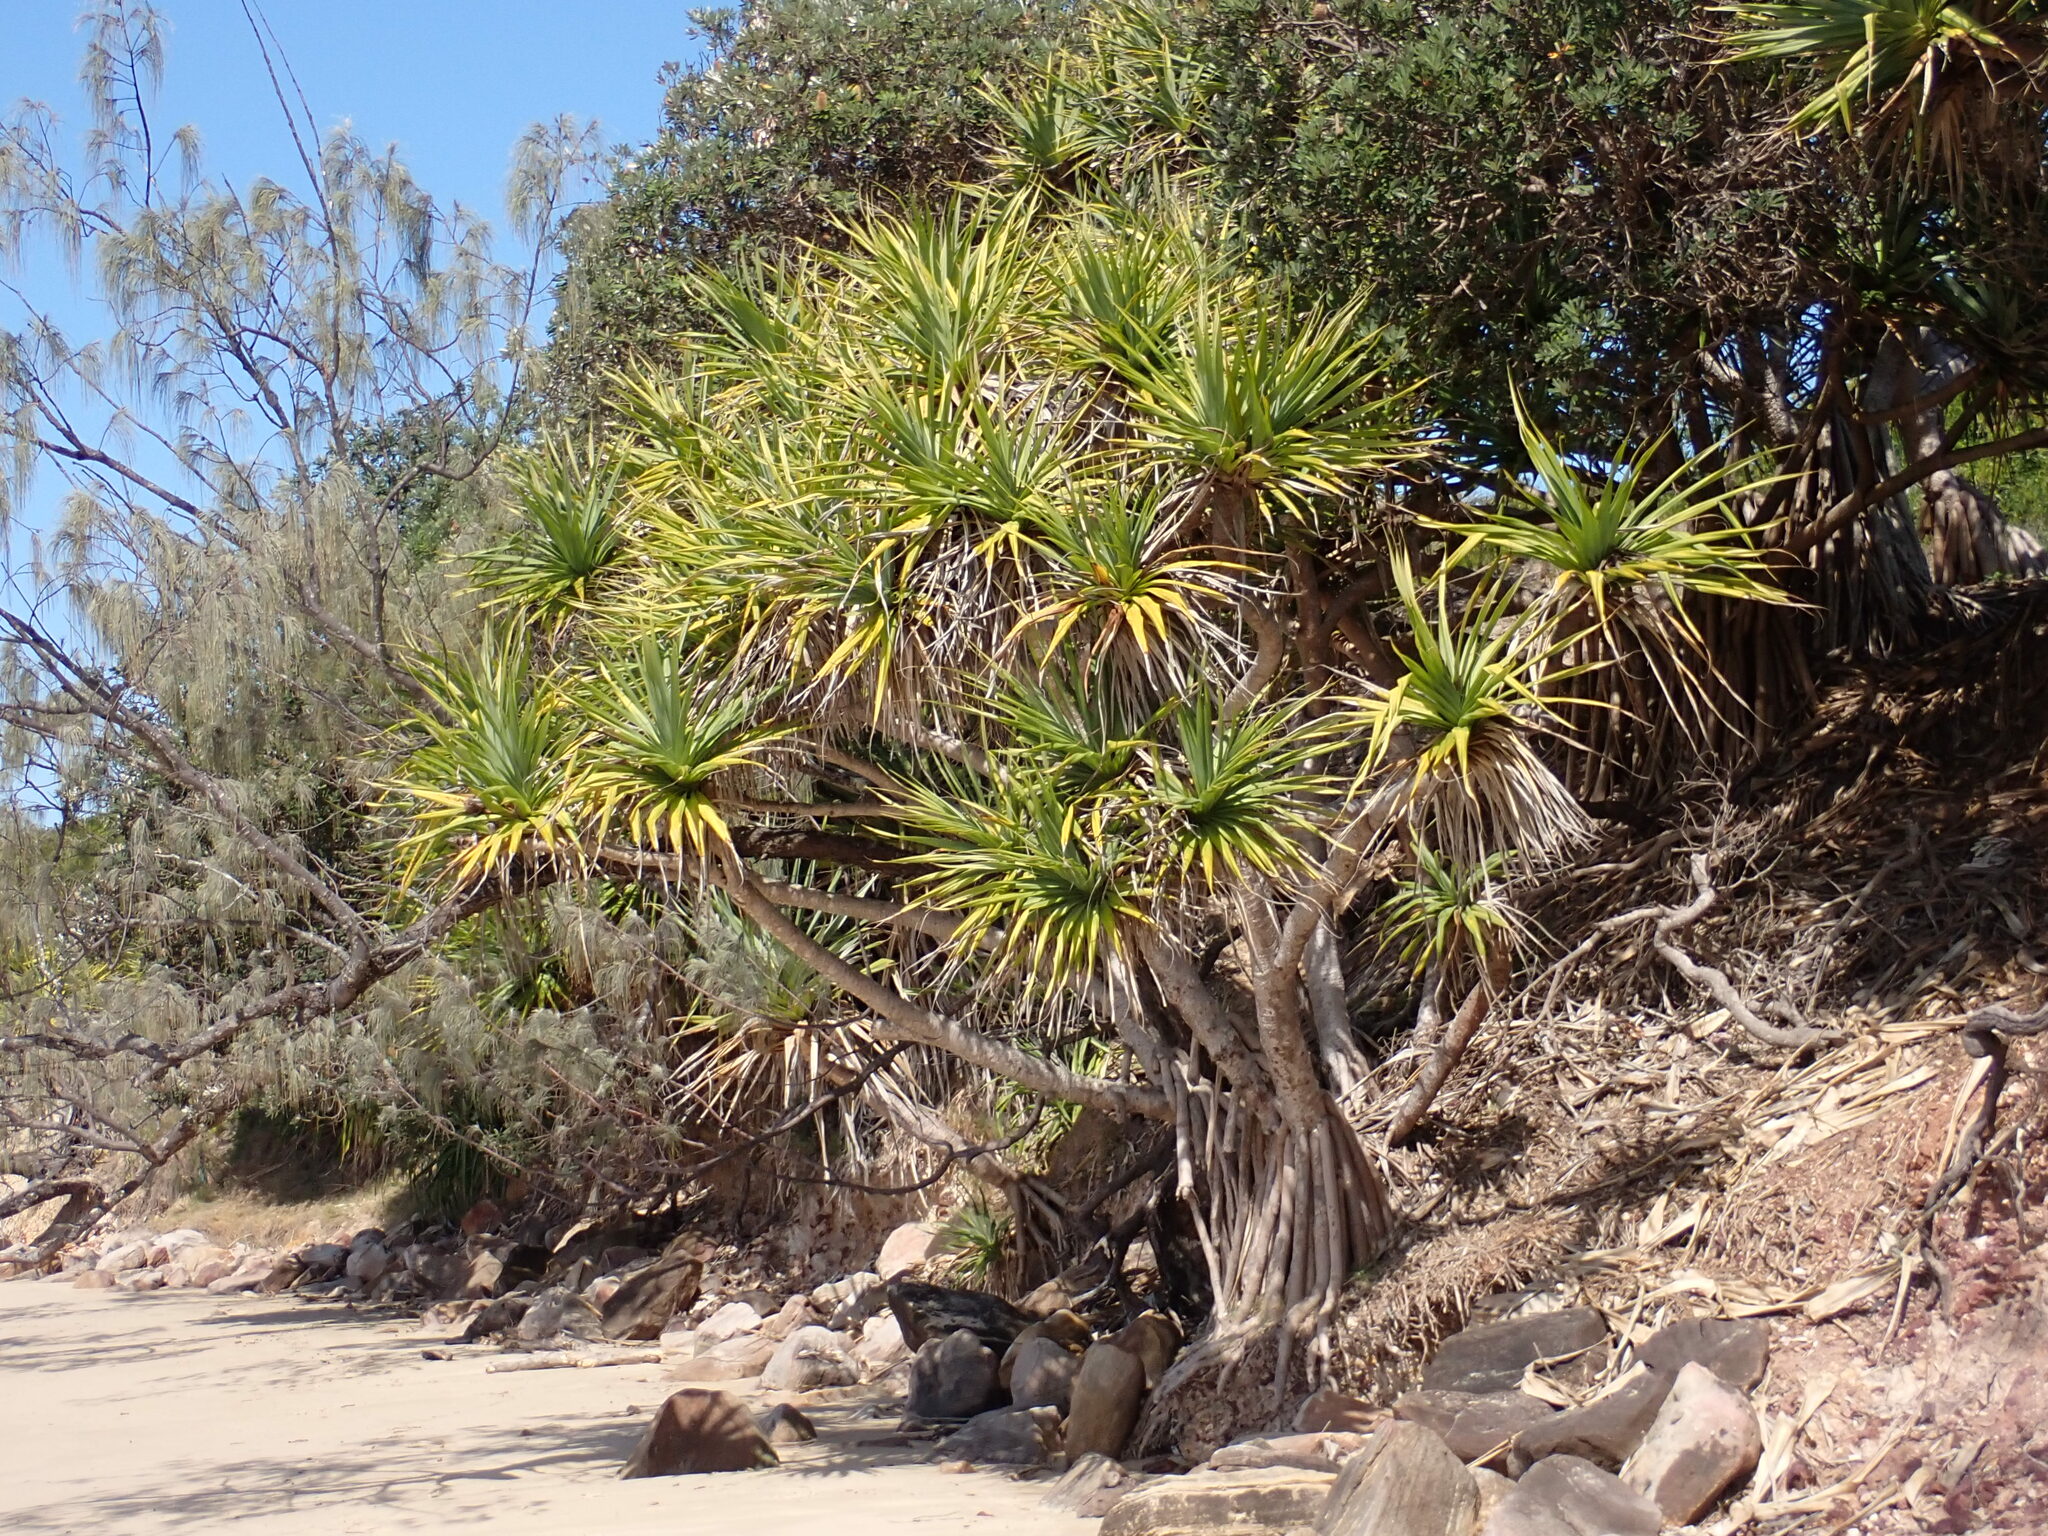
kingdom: Plantae
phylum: Tracheophyta
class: Liliopsida
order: Pandanales
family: Pandanaceae
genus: Pandanus
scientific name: Pandanus tectorius
